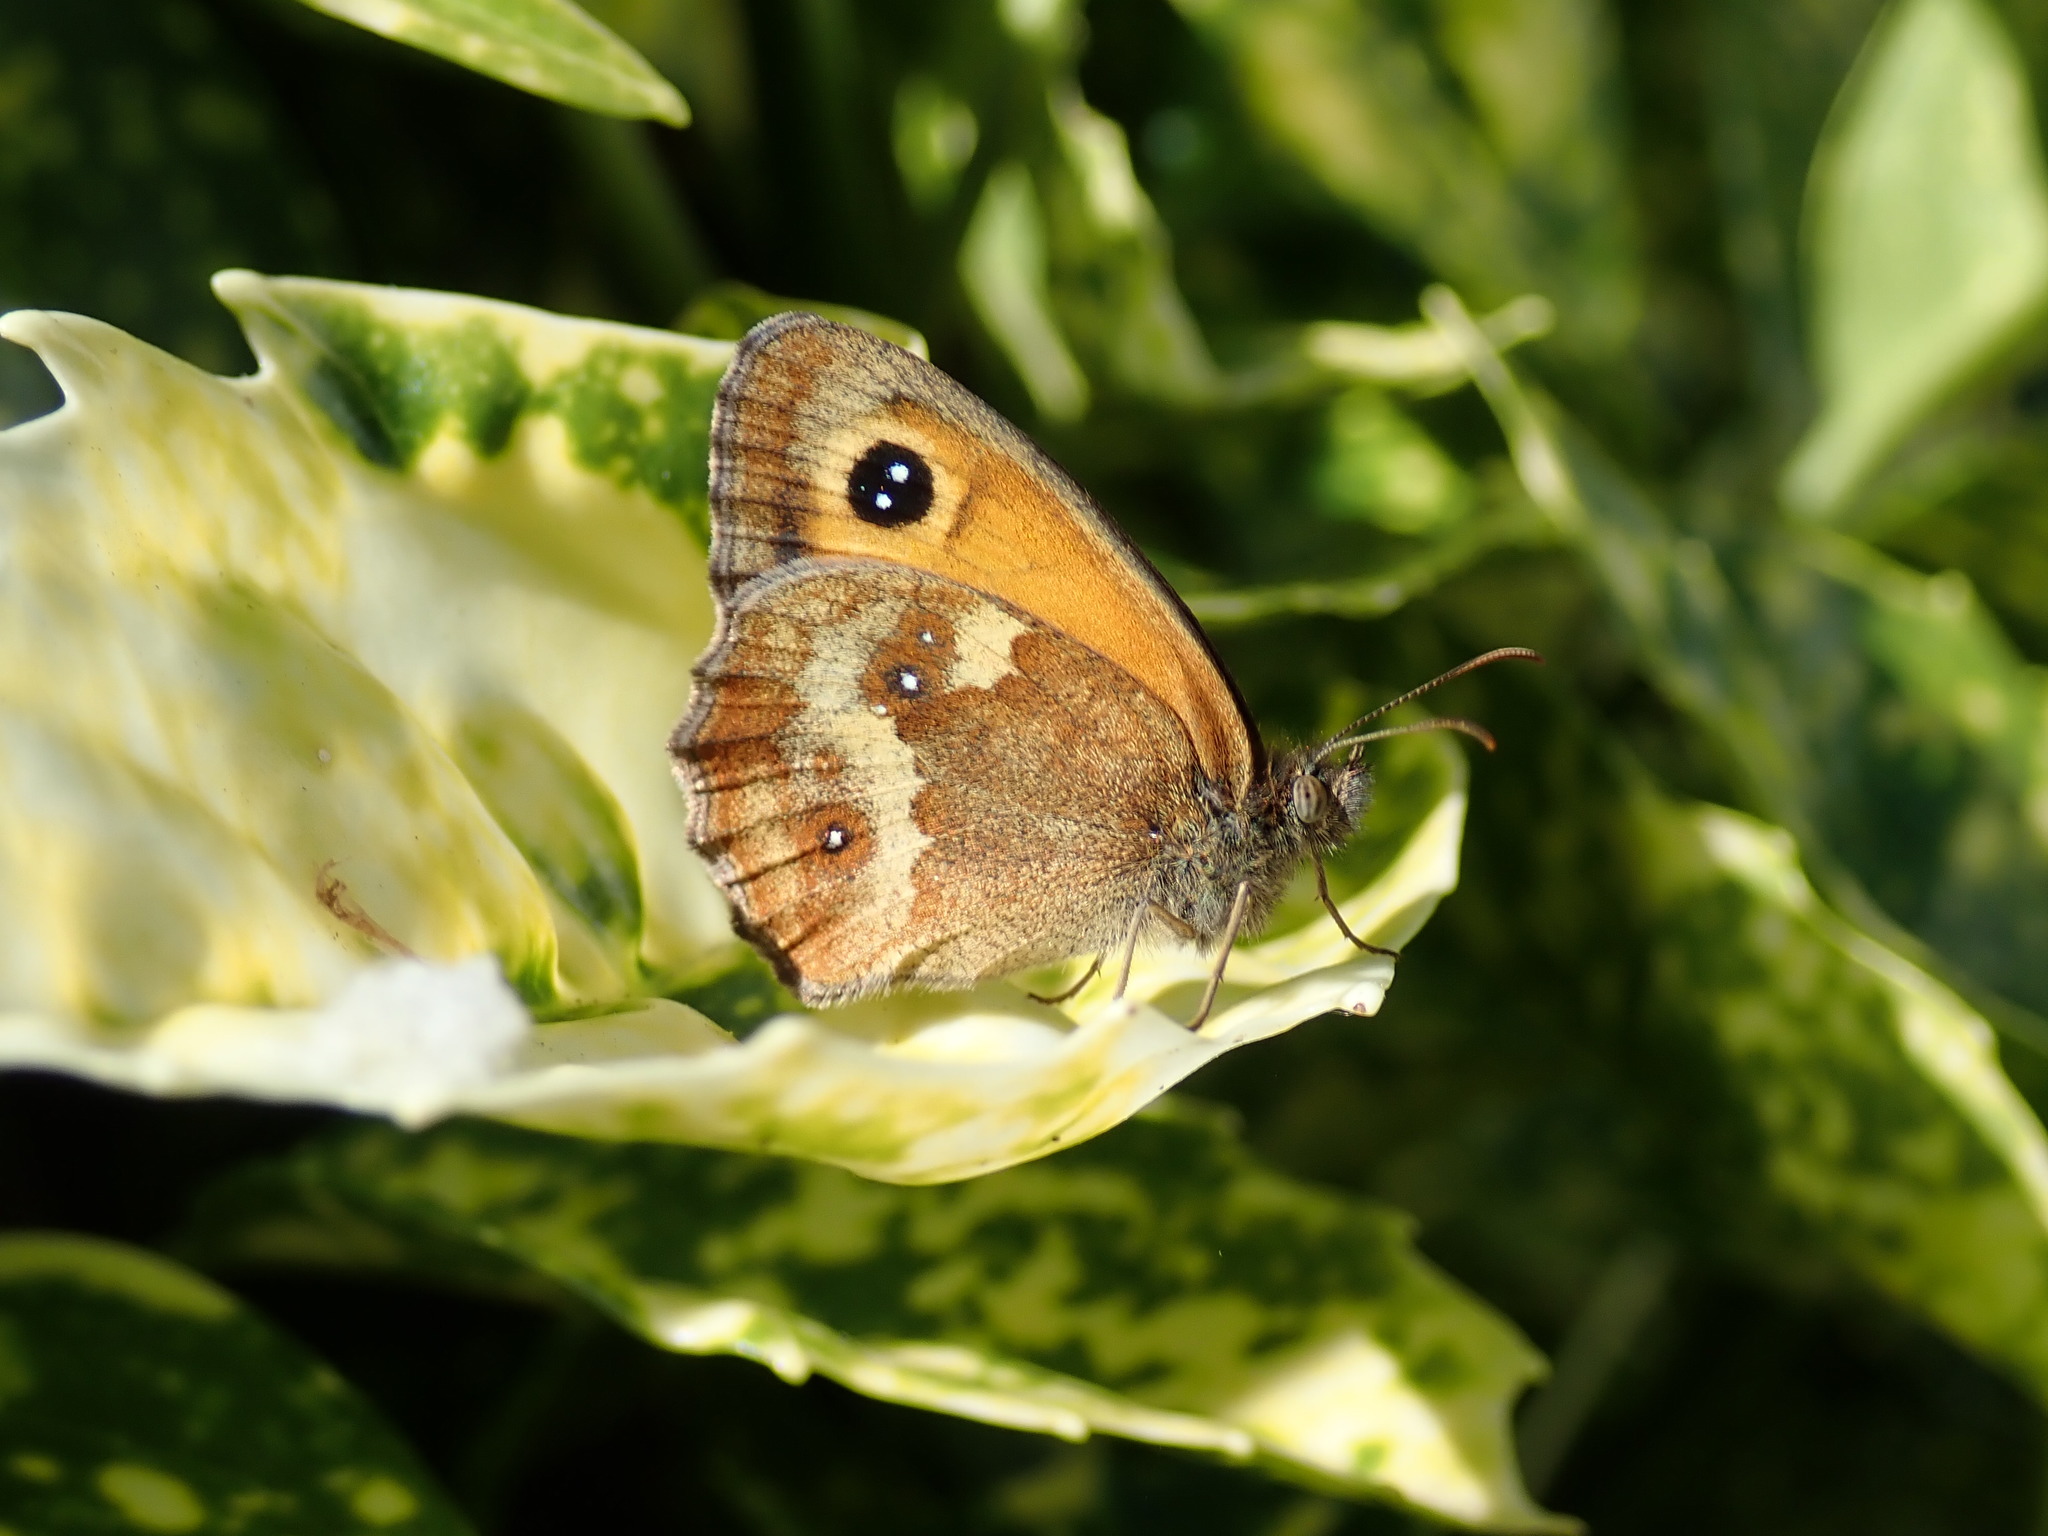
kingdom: Animalia
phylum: Arthropoda
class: Insecta
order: Lepidoptera
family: Nymphalidae
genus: Pyronia
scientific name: Pyronia tithonus
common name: Gatekeeper
